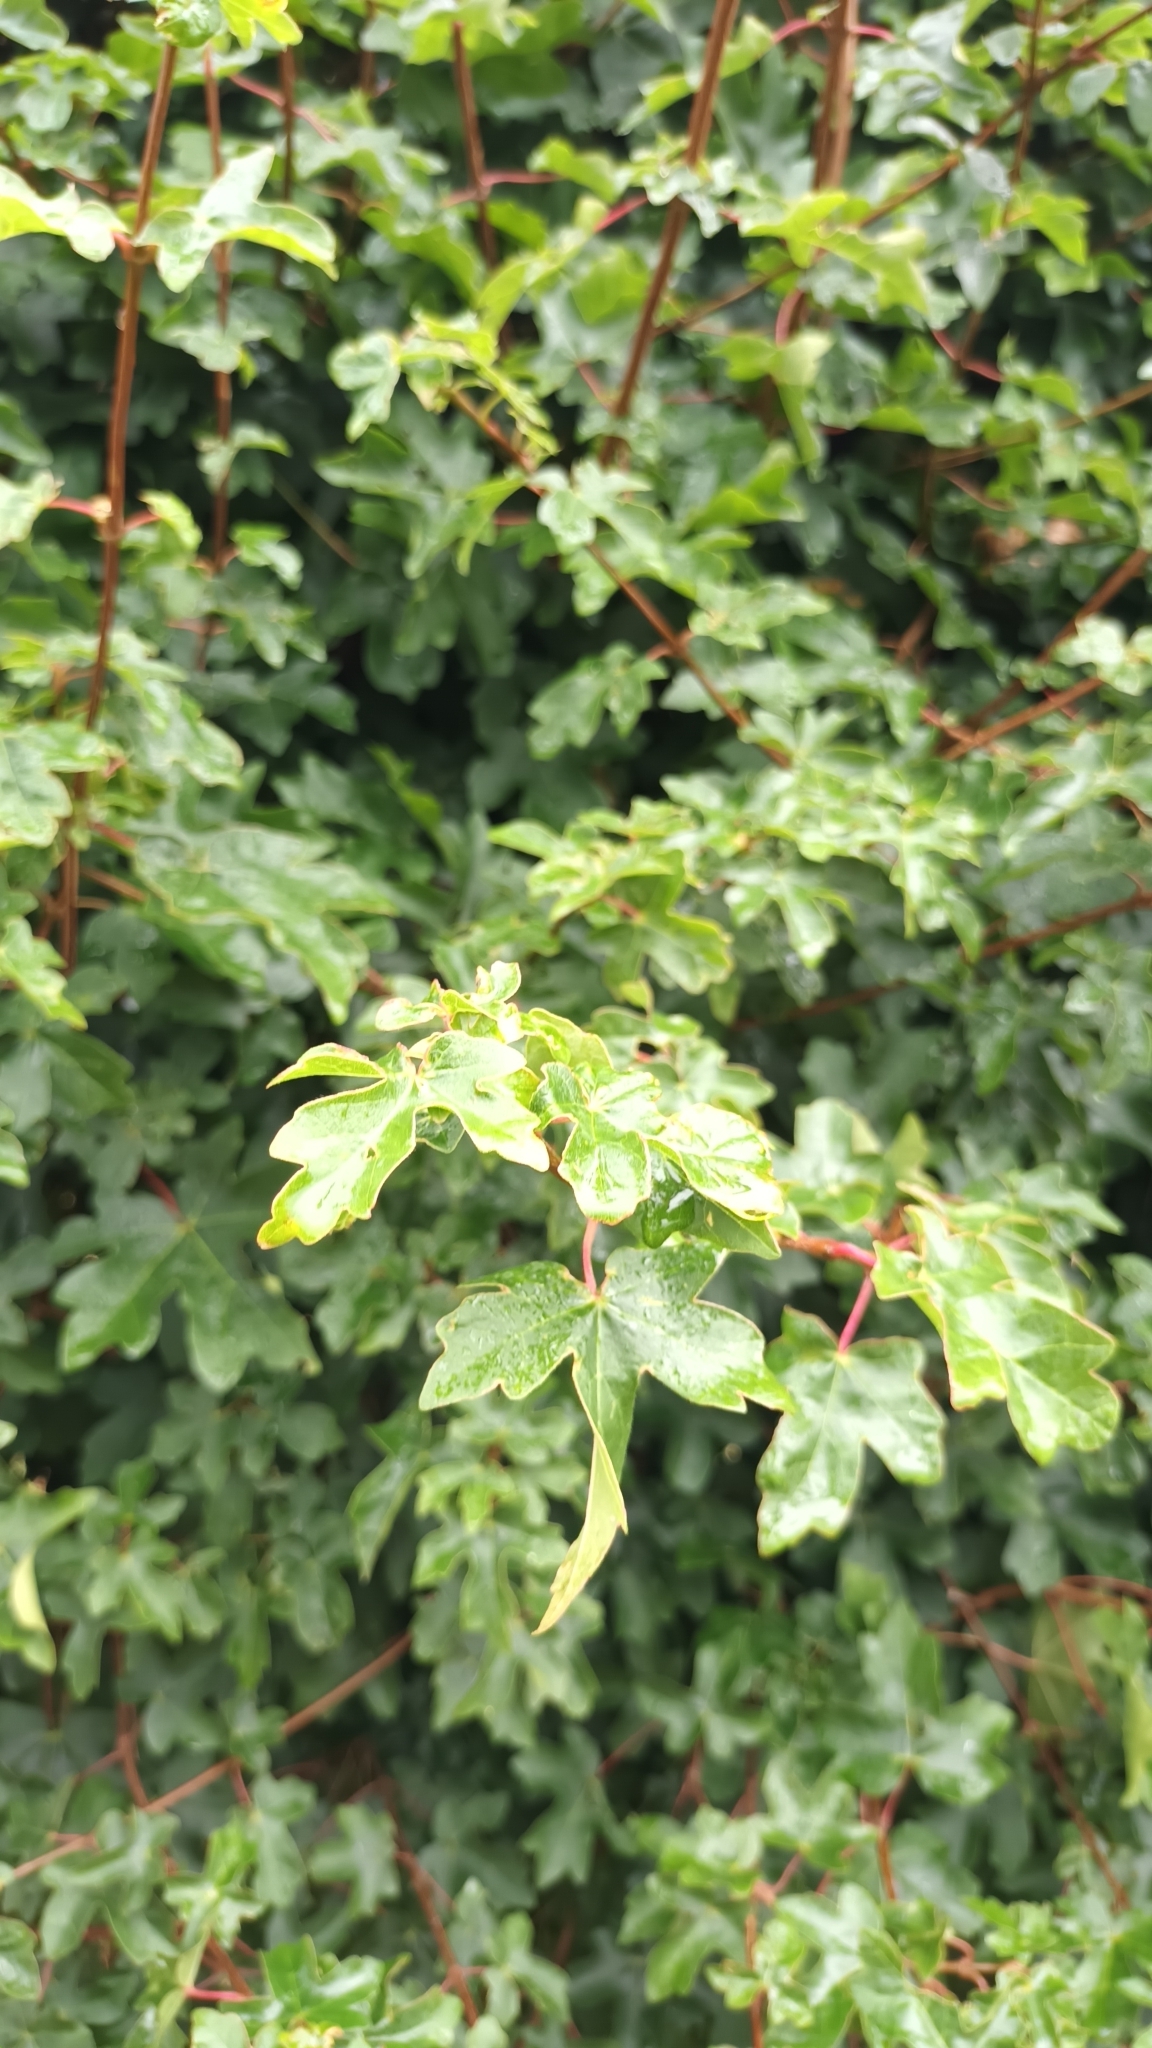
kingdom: Plantae
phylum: Tracheophyta
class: Magnoliopsida
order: Sapindales
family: Sapindaceae
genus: Acer
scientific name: Acer campestre
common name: Field maple
